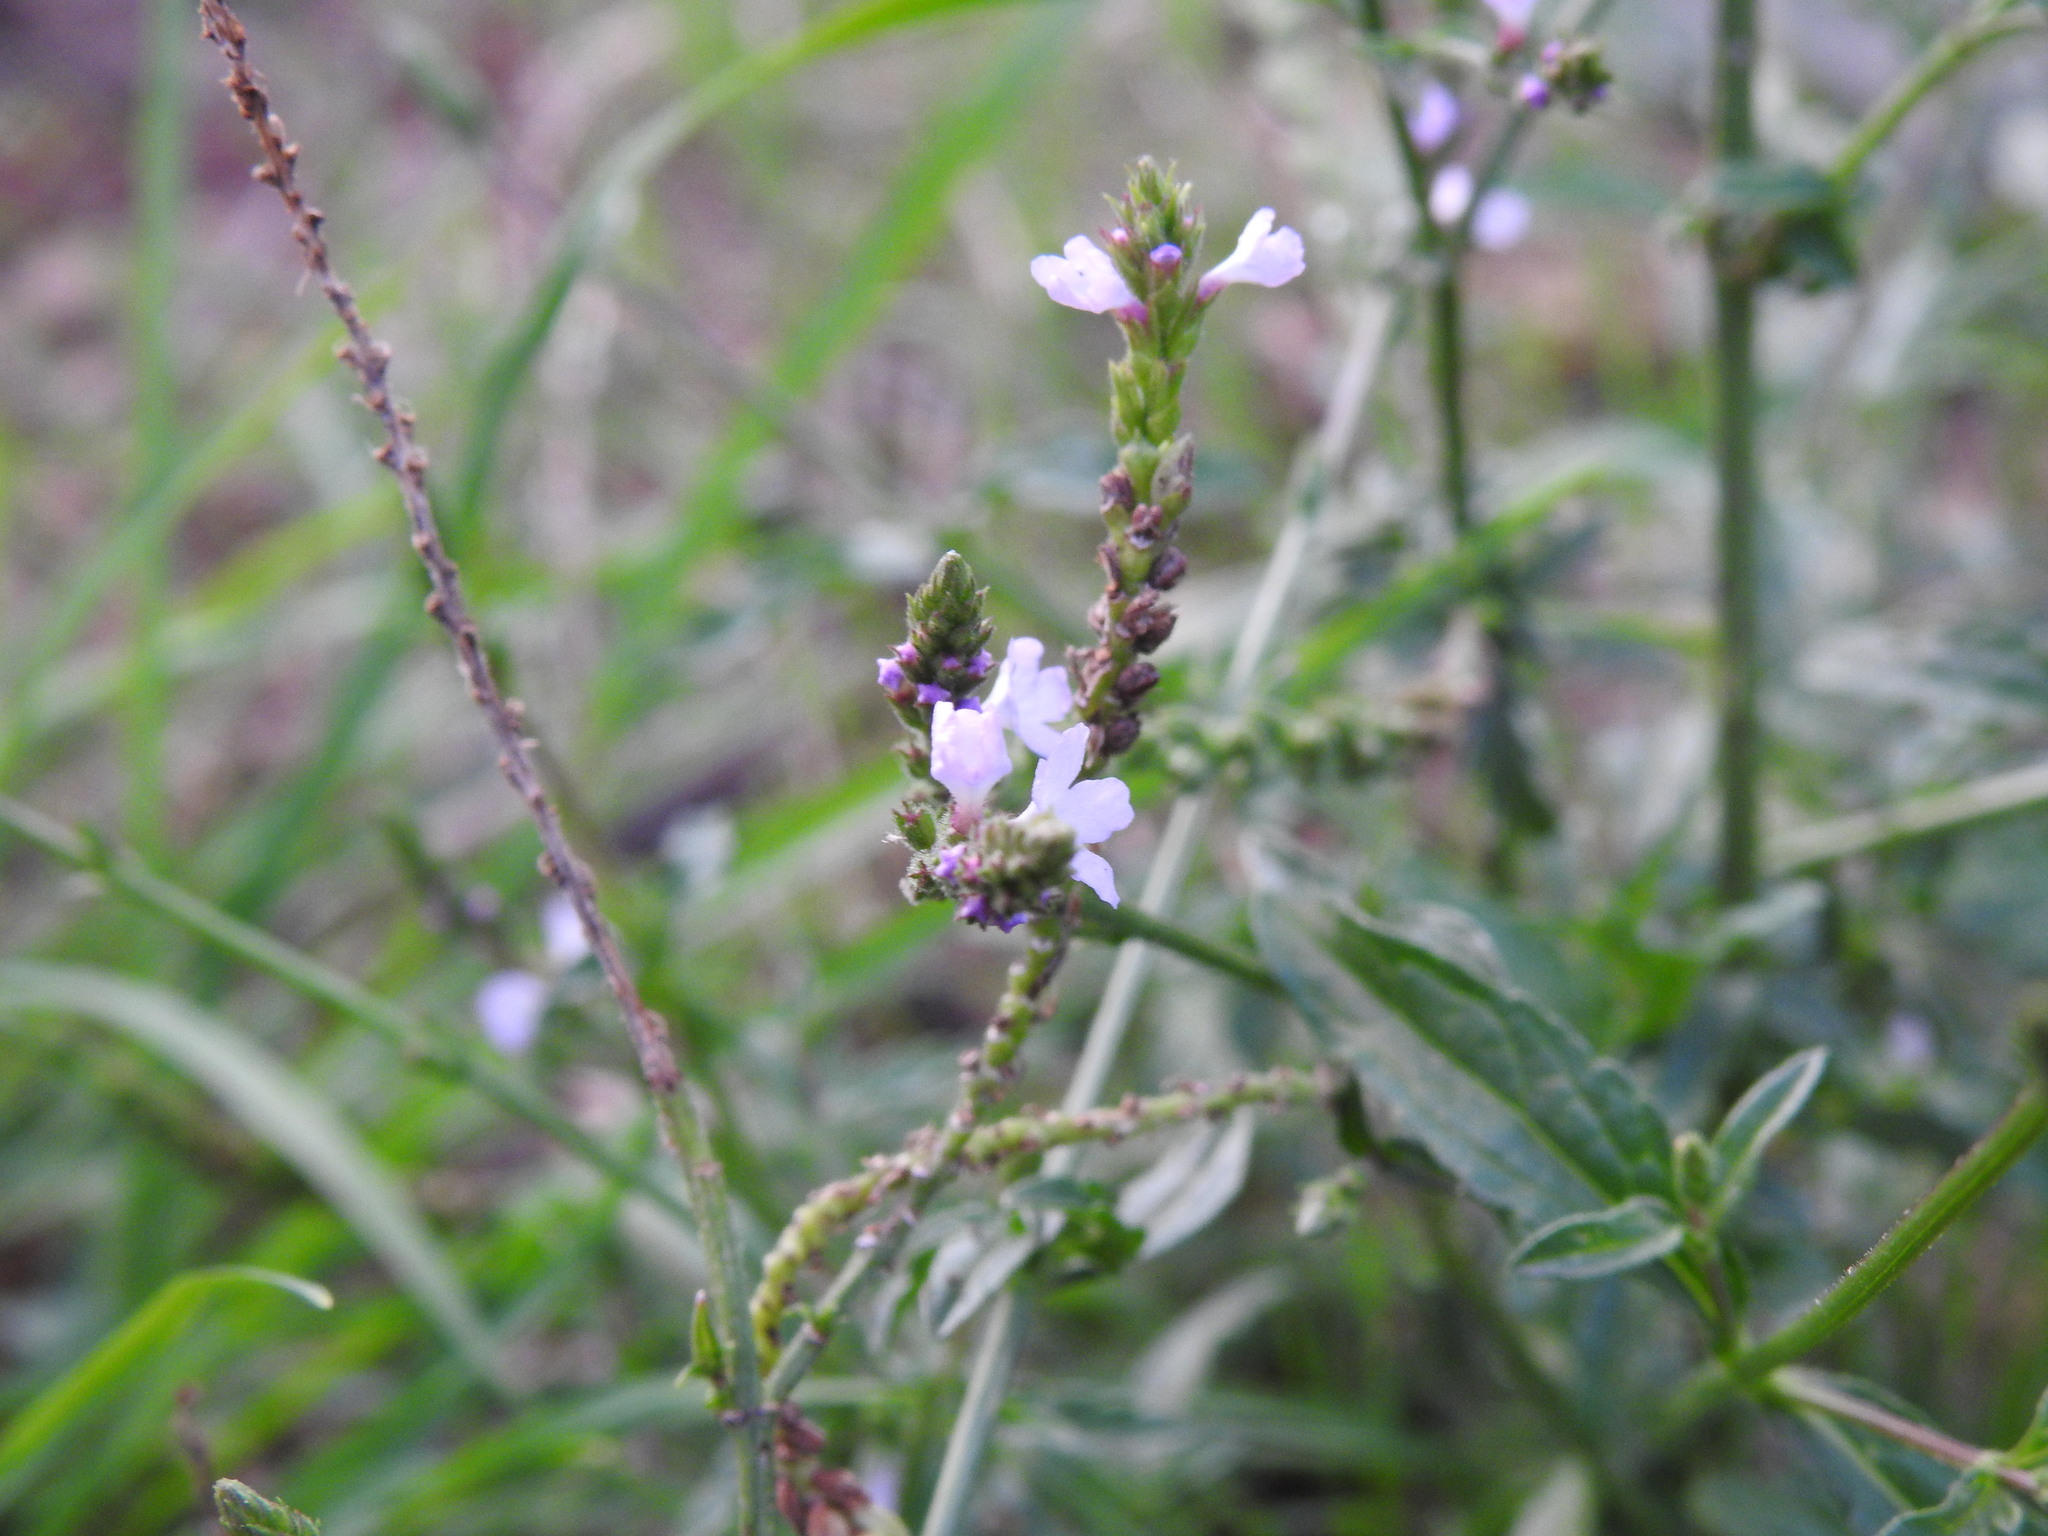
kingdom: Plantae
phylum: Tracheophyta
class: Magnoliopsida
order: Lamiales
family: Verbenaceae
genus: Verbena
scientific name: Verbena officinalis
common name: Vervain
